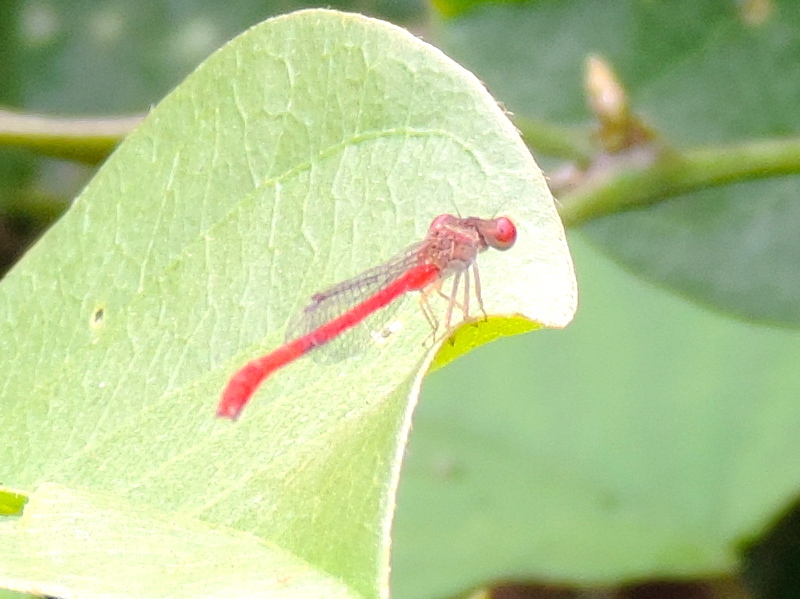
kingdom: Animalia
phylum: Arthropoda
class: Insecta
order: Odonata
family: Coenagrionidae
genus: Telebasis
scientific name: Telebasis
